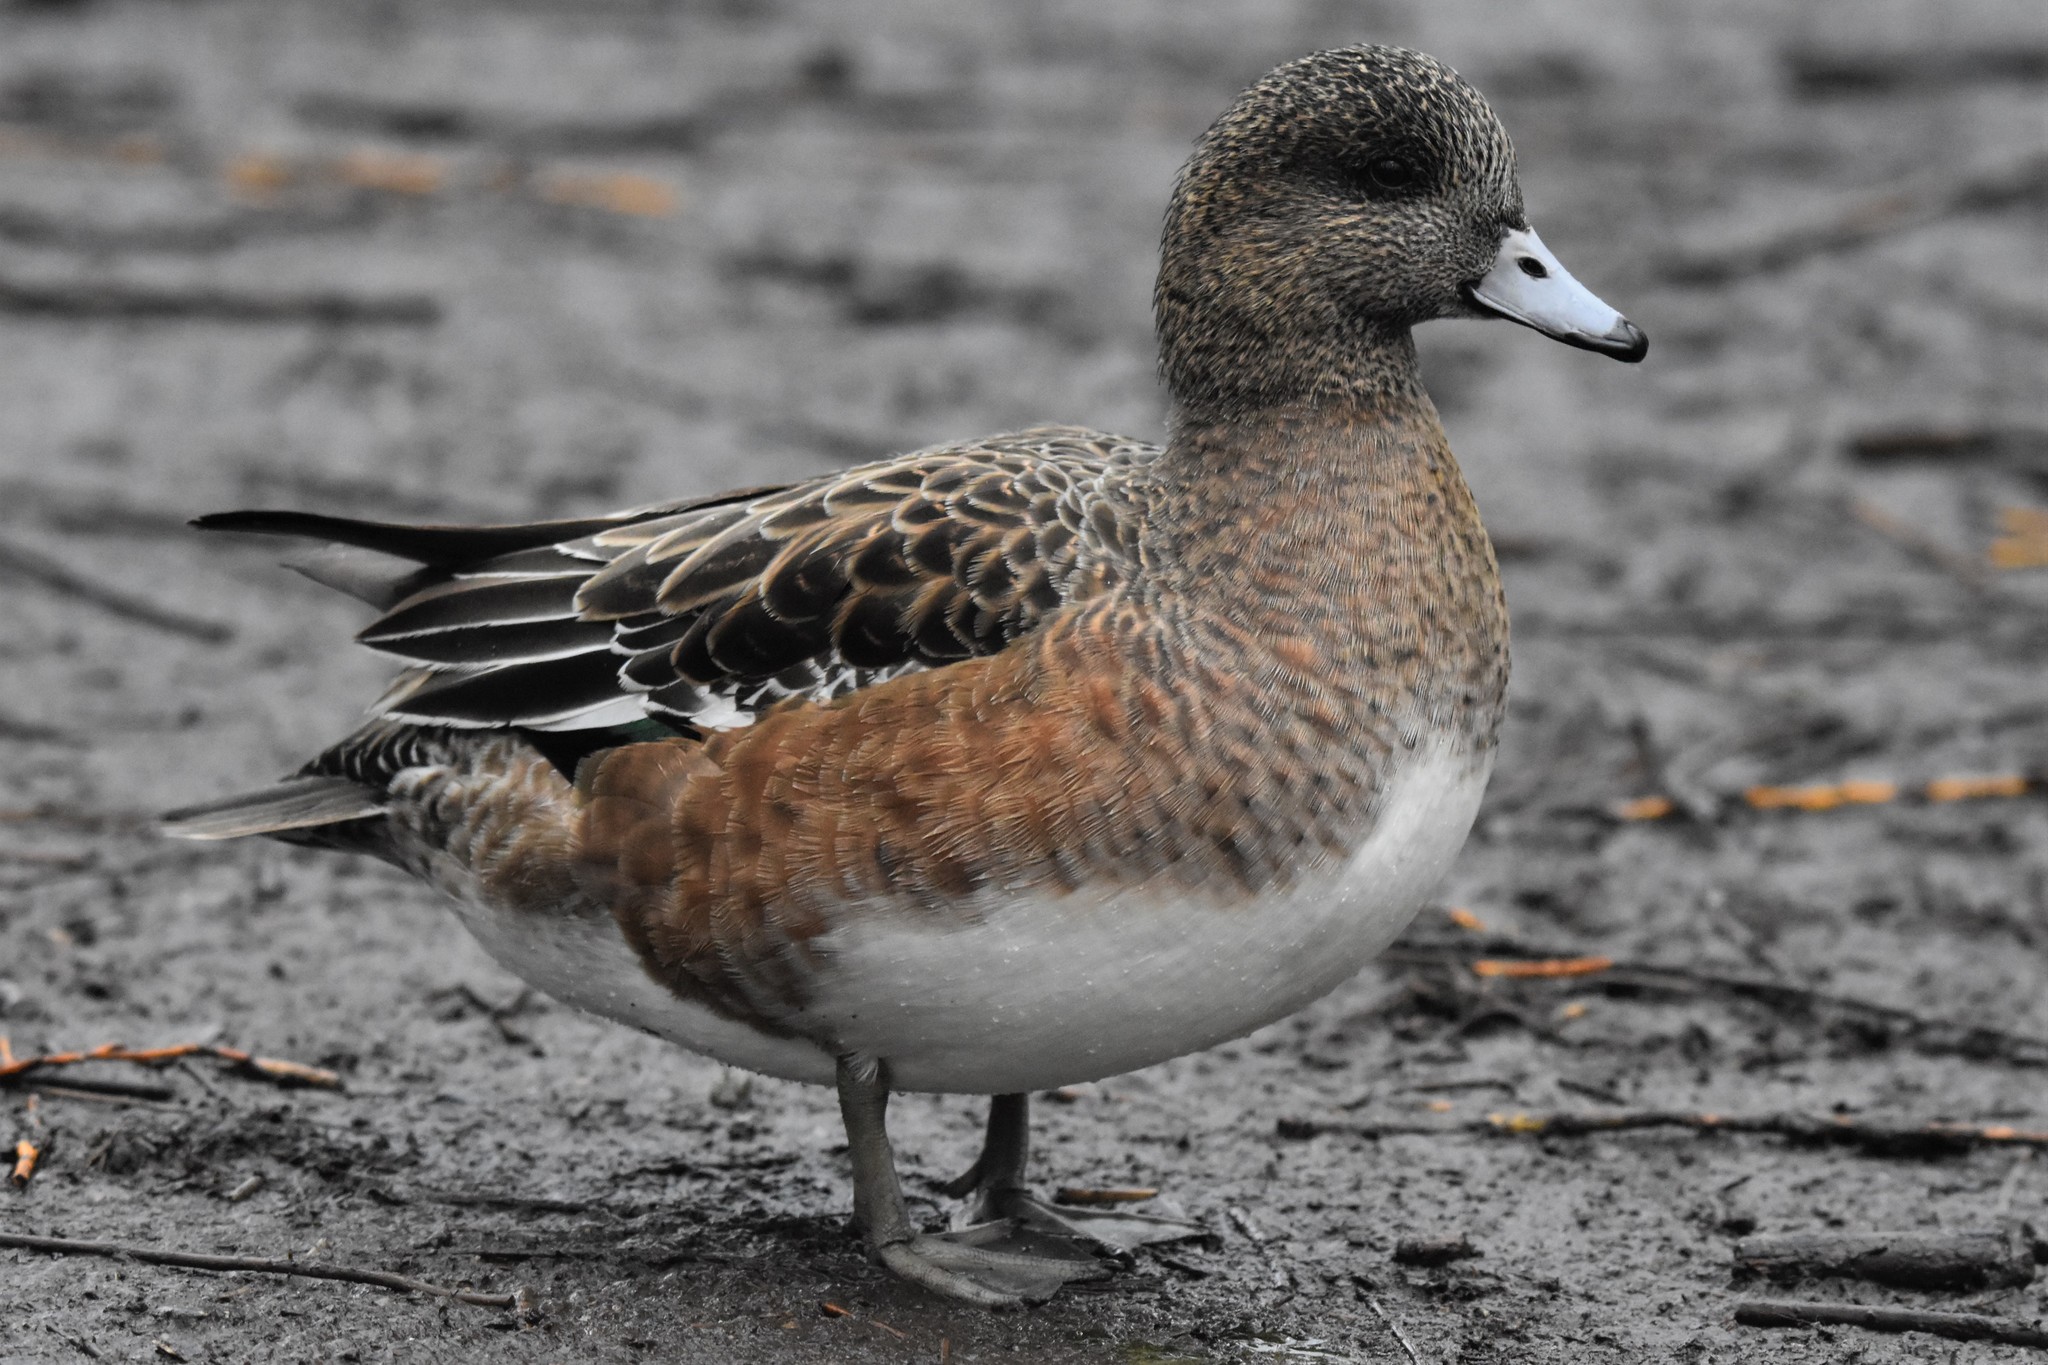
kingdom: Animalia
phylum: Chordata
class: Aves
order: Anseriformes
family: Anatidae
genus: Mareca
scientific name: Mareca americana
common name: American wigeon
